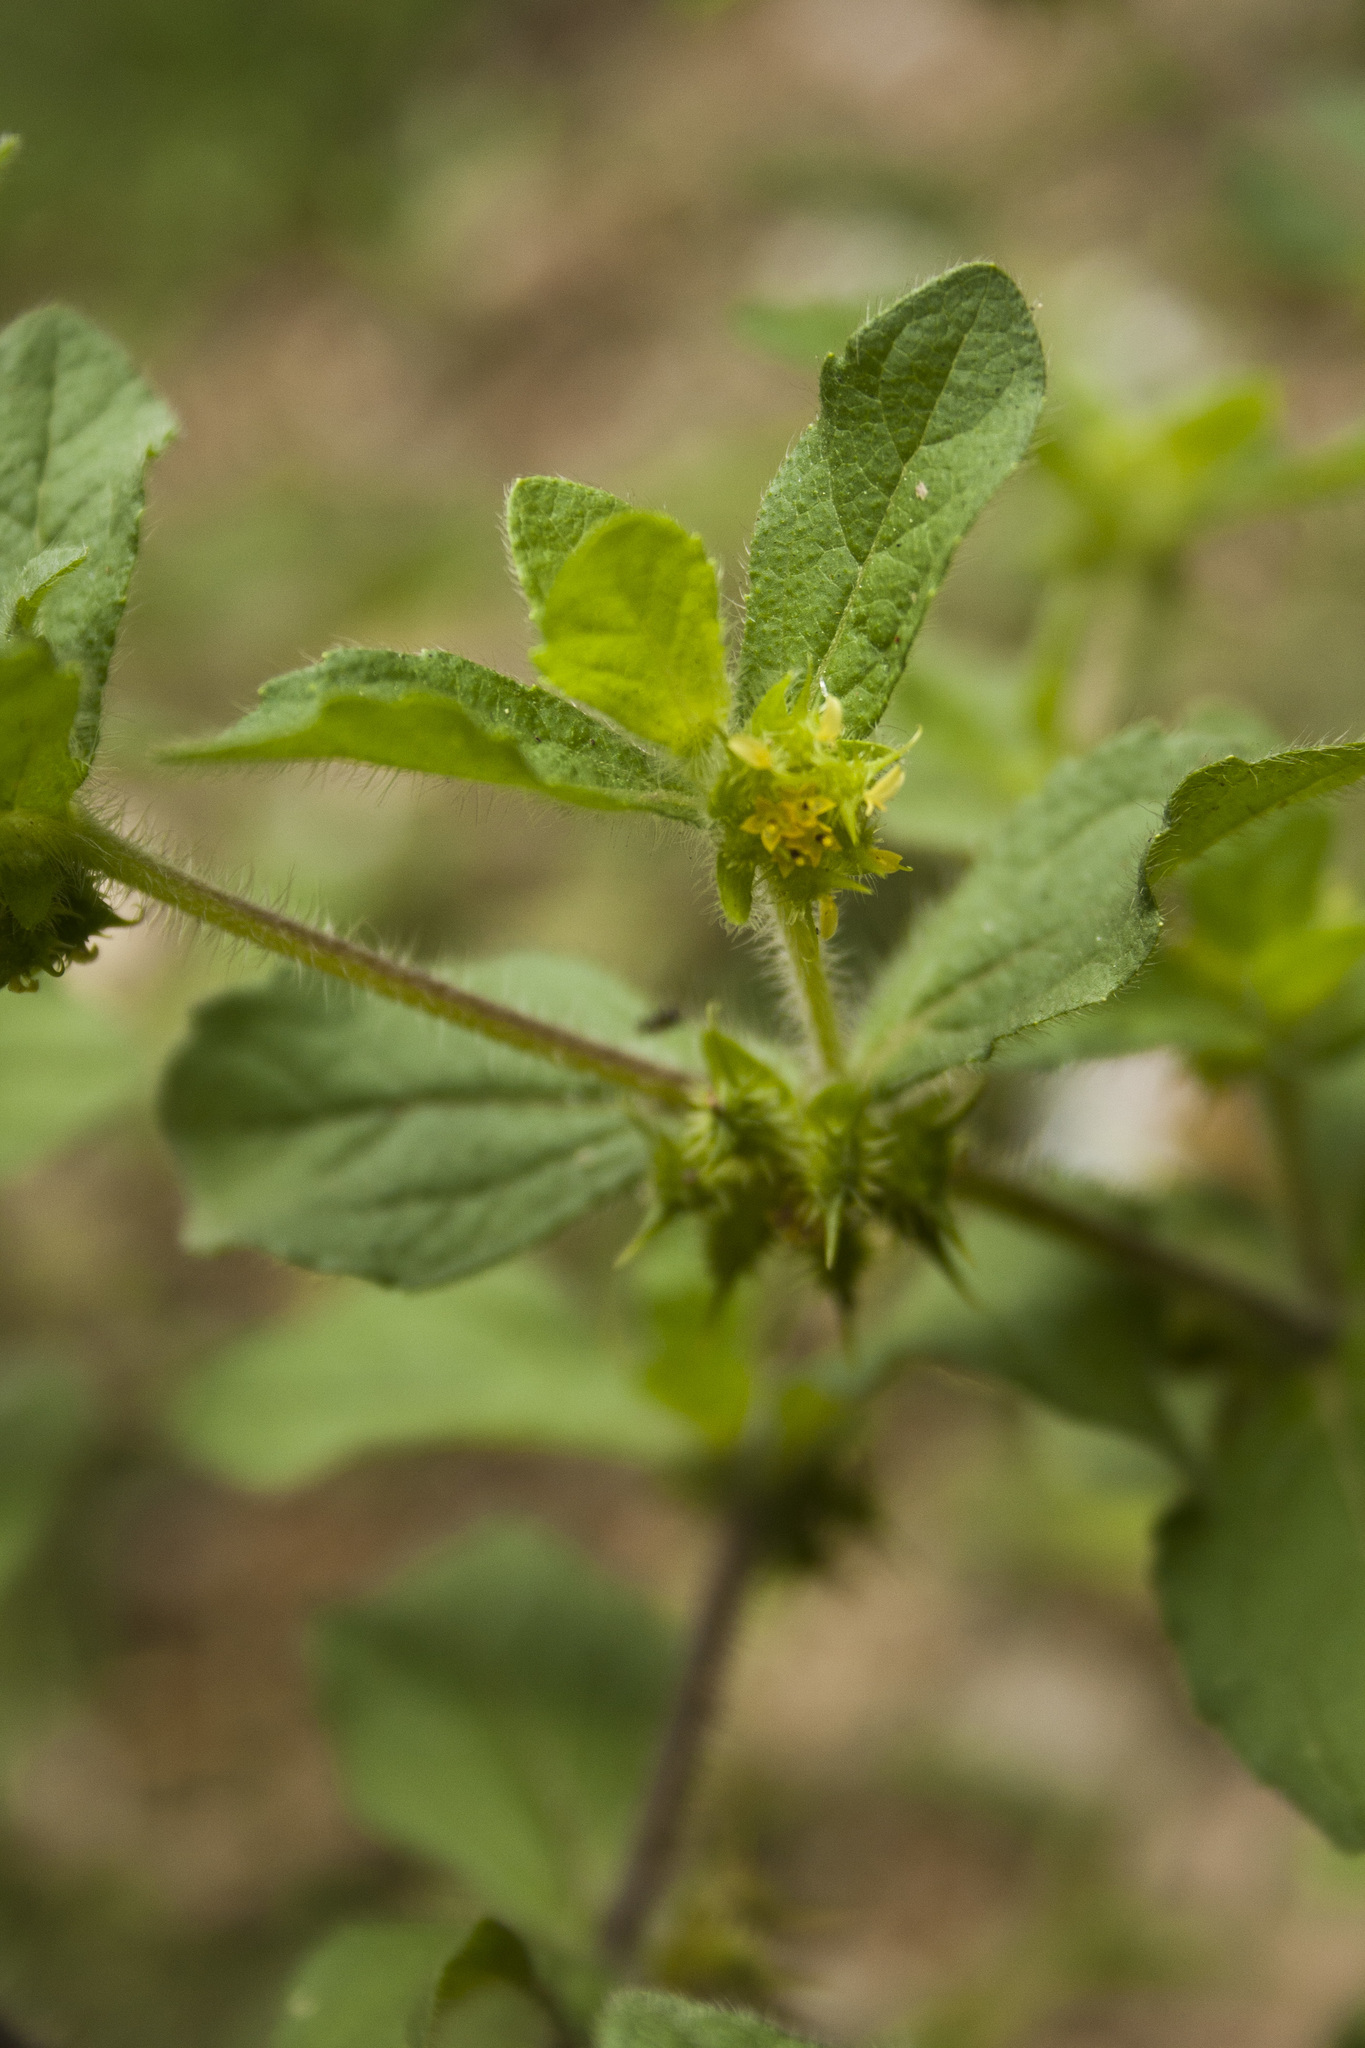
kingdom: Plantae
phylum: Tracheophyta
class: Magnoliopsida
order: Asterales
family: Asteraceae
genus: Acanthospermum
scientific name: Acanthospermum hispidum
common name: Hispid starbur
